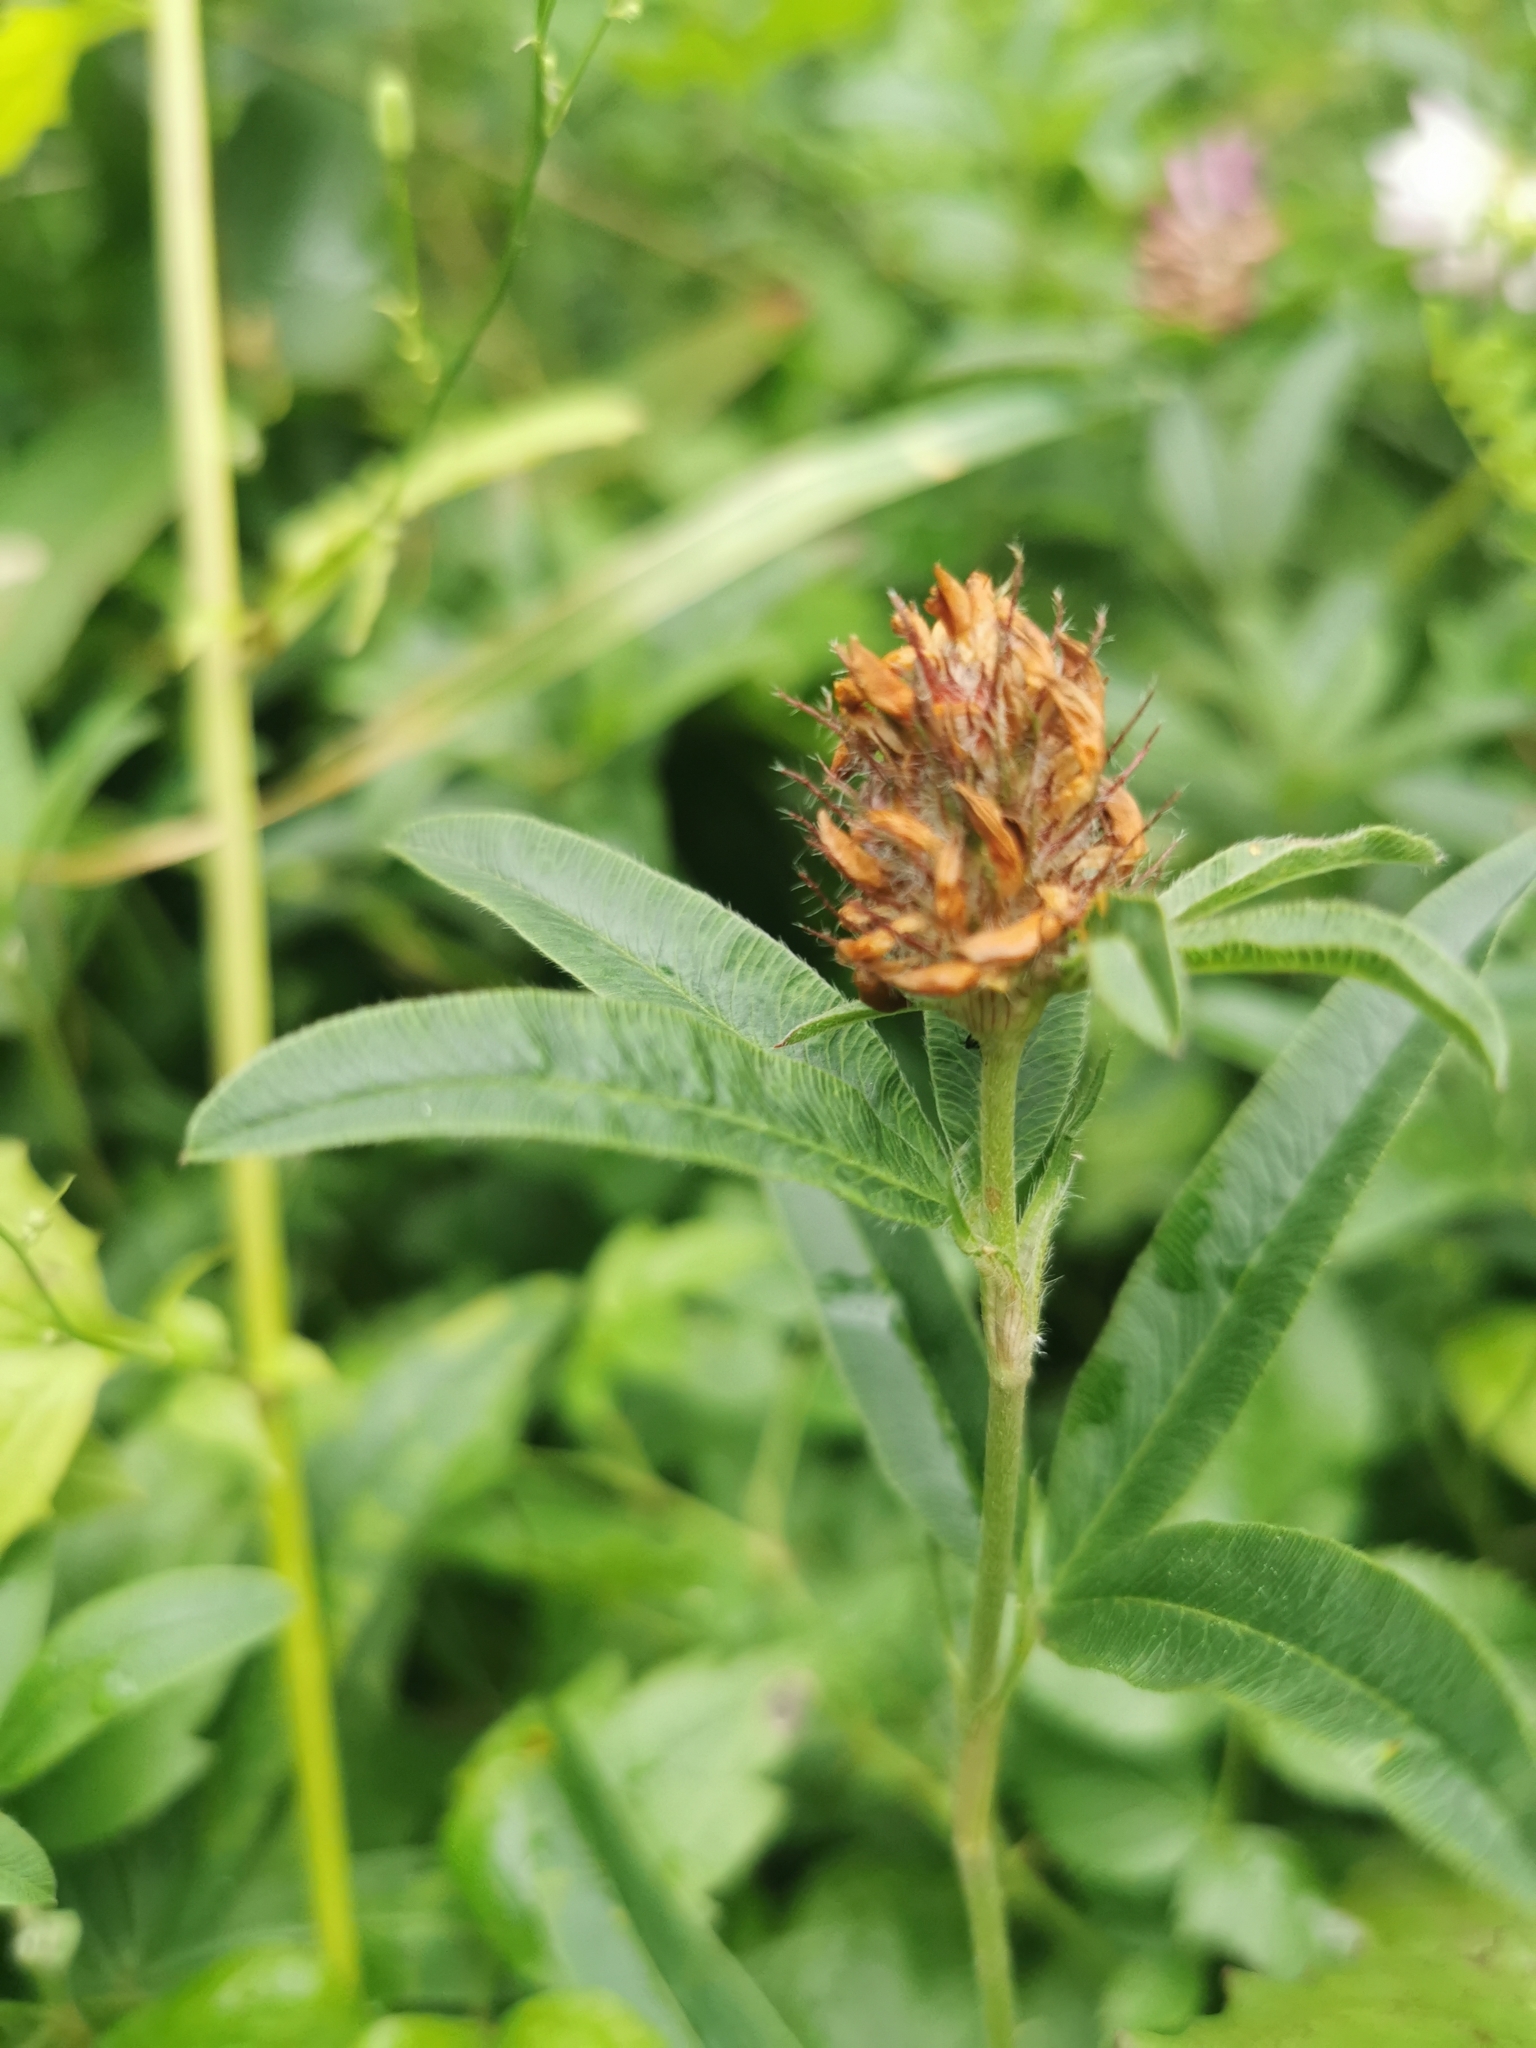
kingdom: Plantae
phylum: Tracheophyta
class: Magnoliopsida
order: Fabales
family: Fabaceae
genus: Trifolium
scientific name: Trifolium alpestre
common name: Owl-head clover
